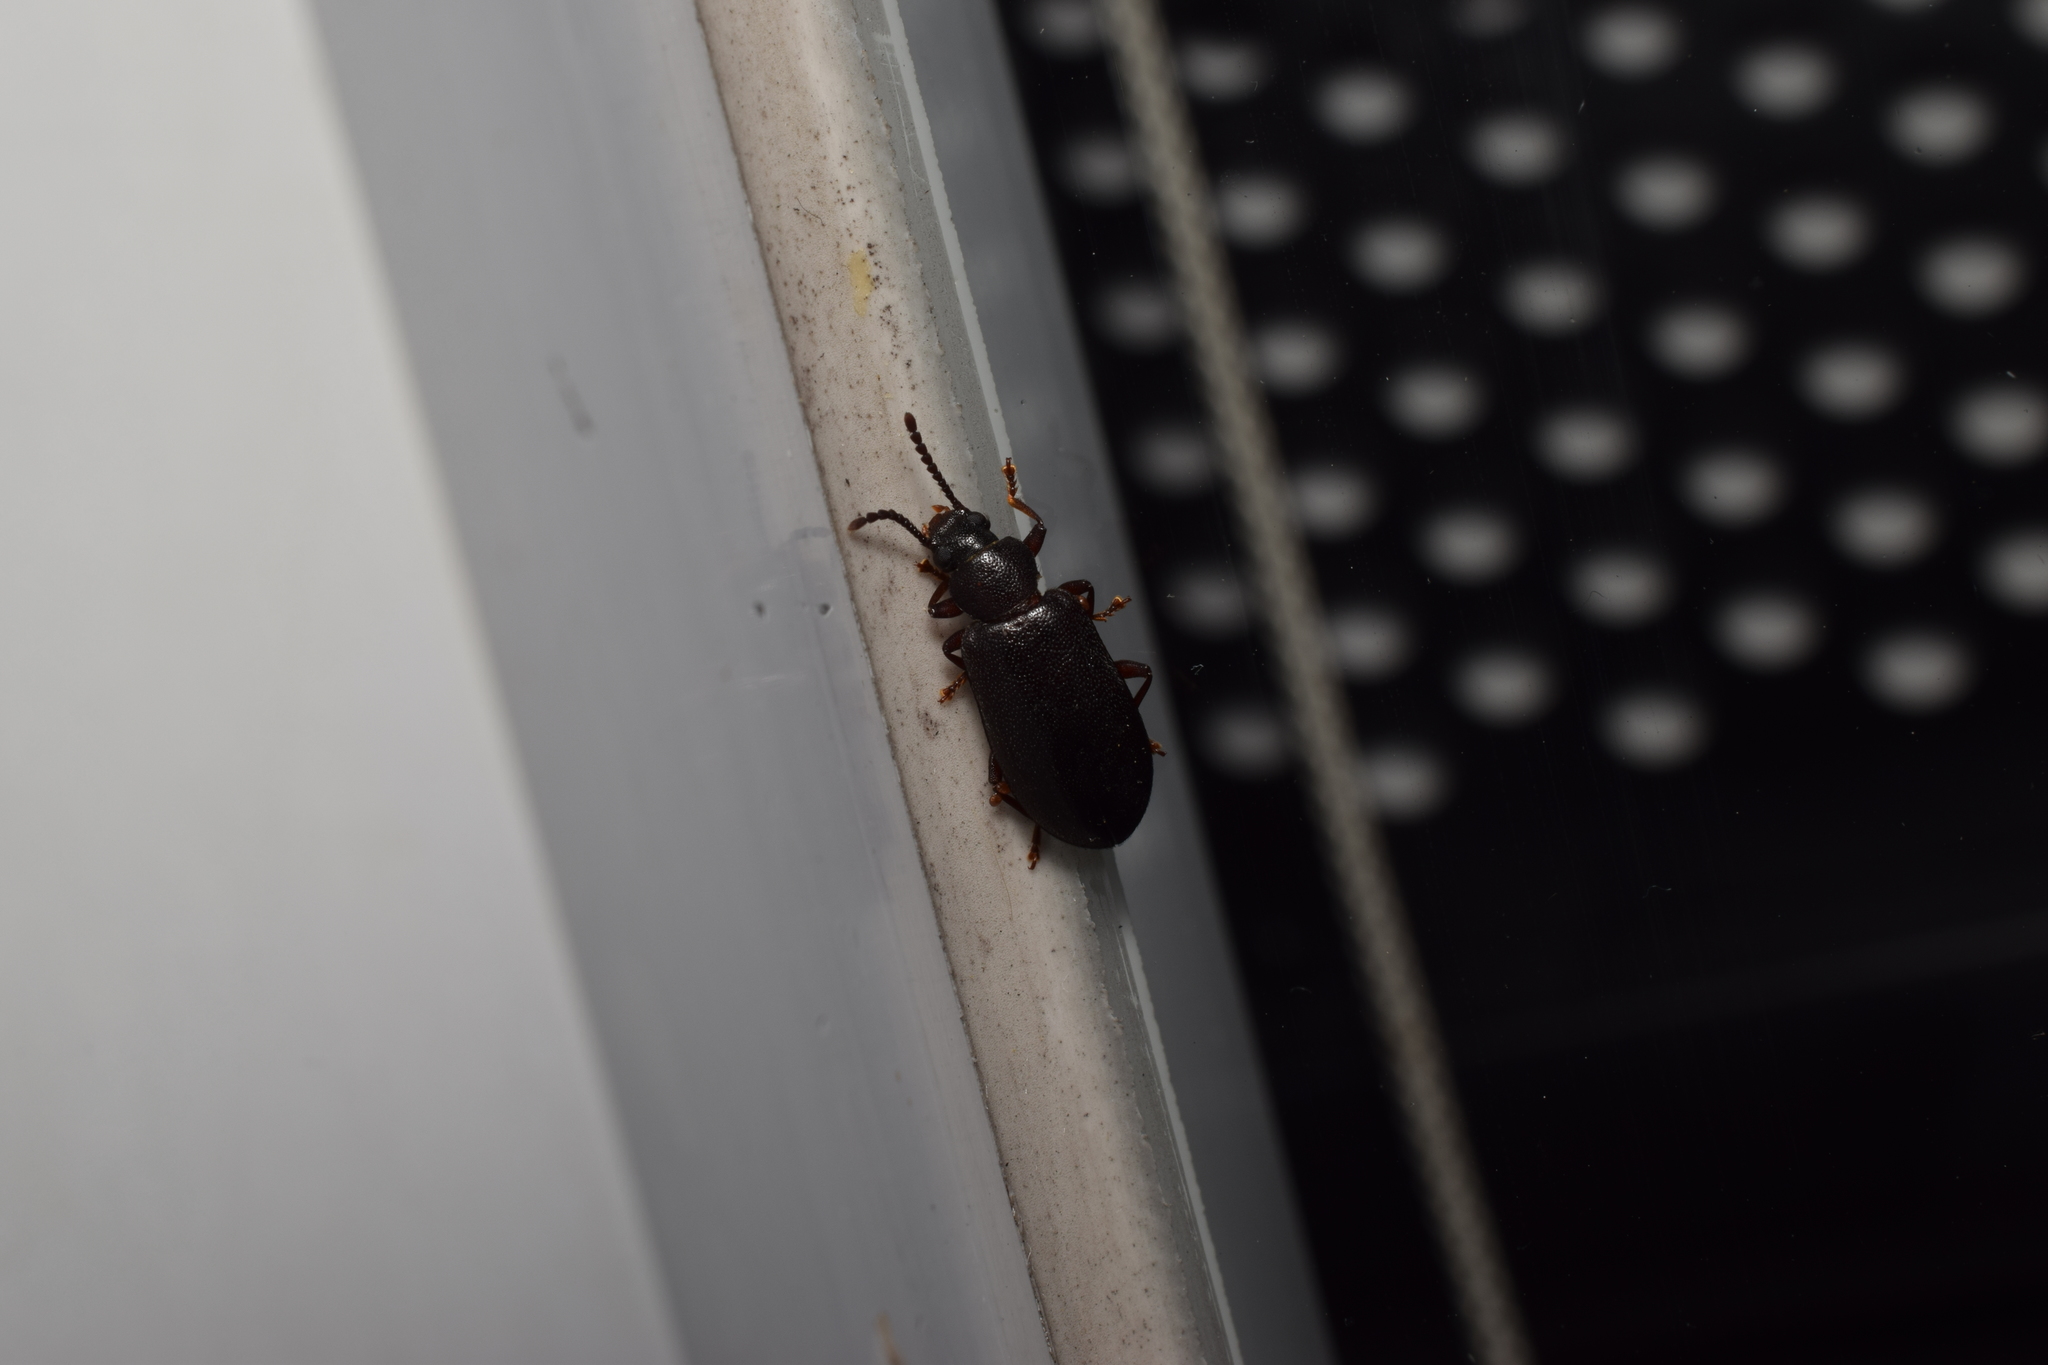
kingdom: Animalia
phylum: Arthropoda
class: Insecta
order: Coleoptera
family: Tenebrionidae
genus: Luprops
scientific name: Luprops orientalis
